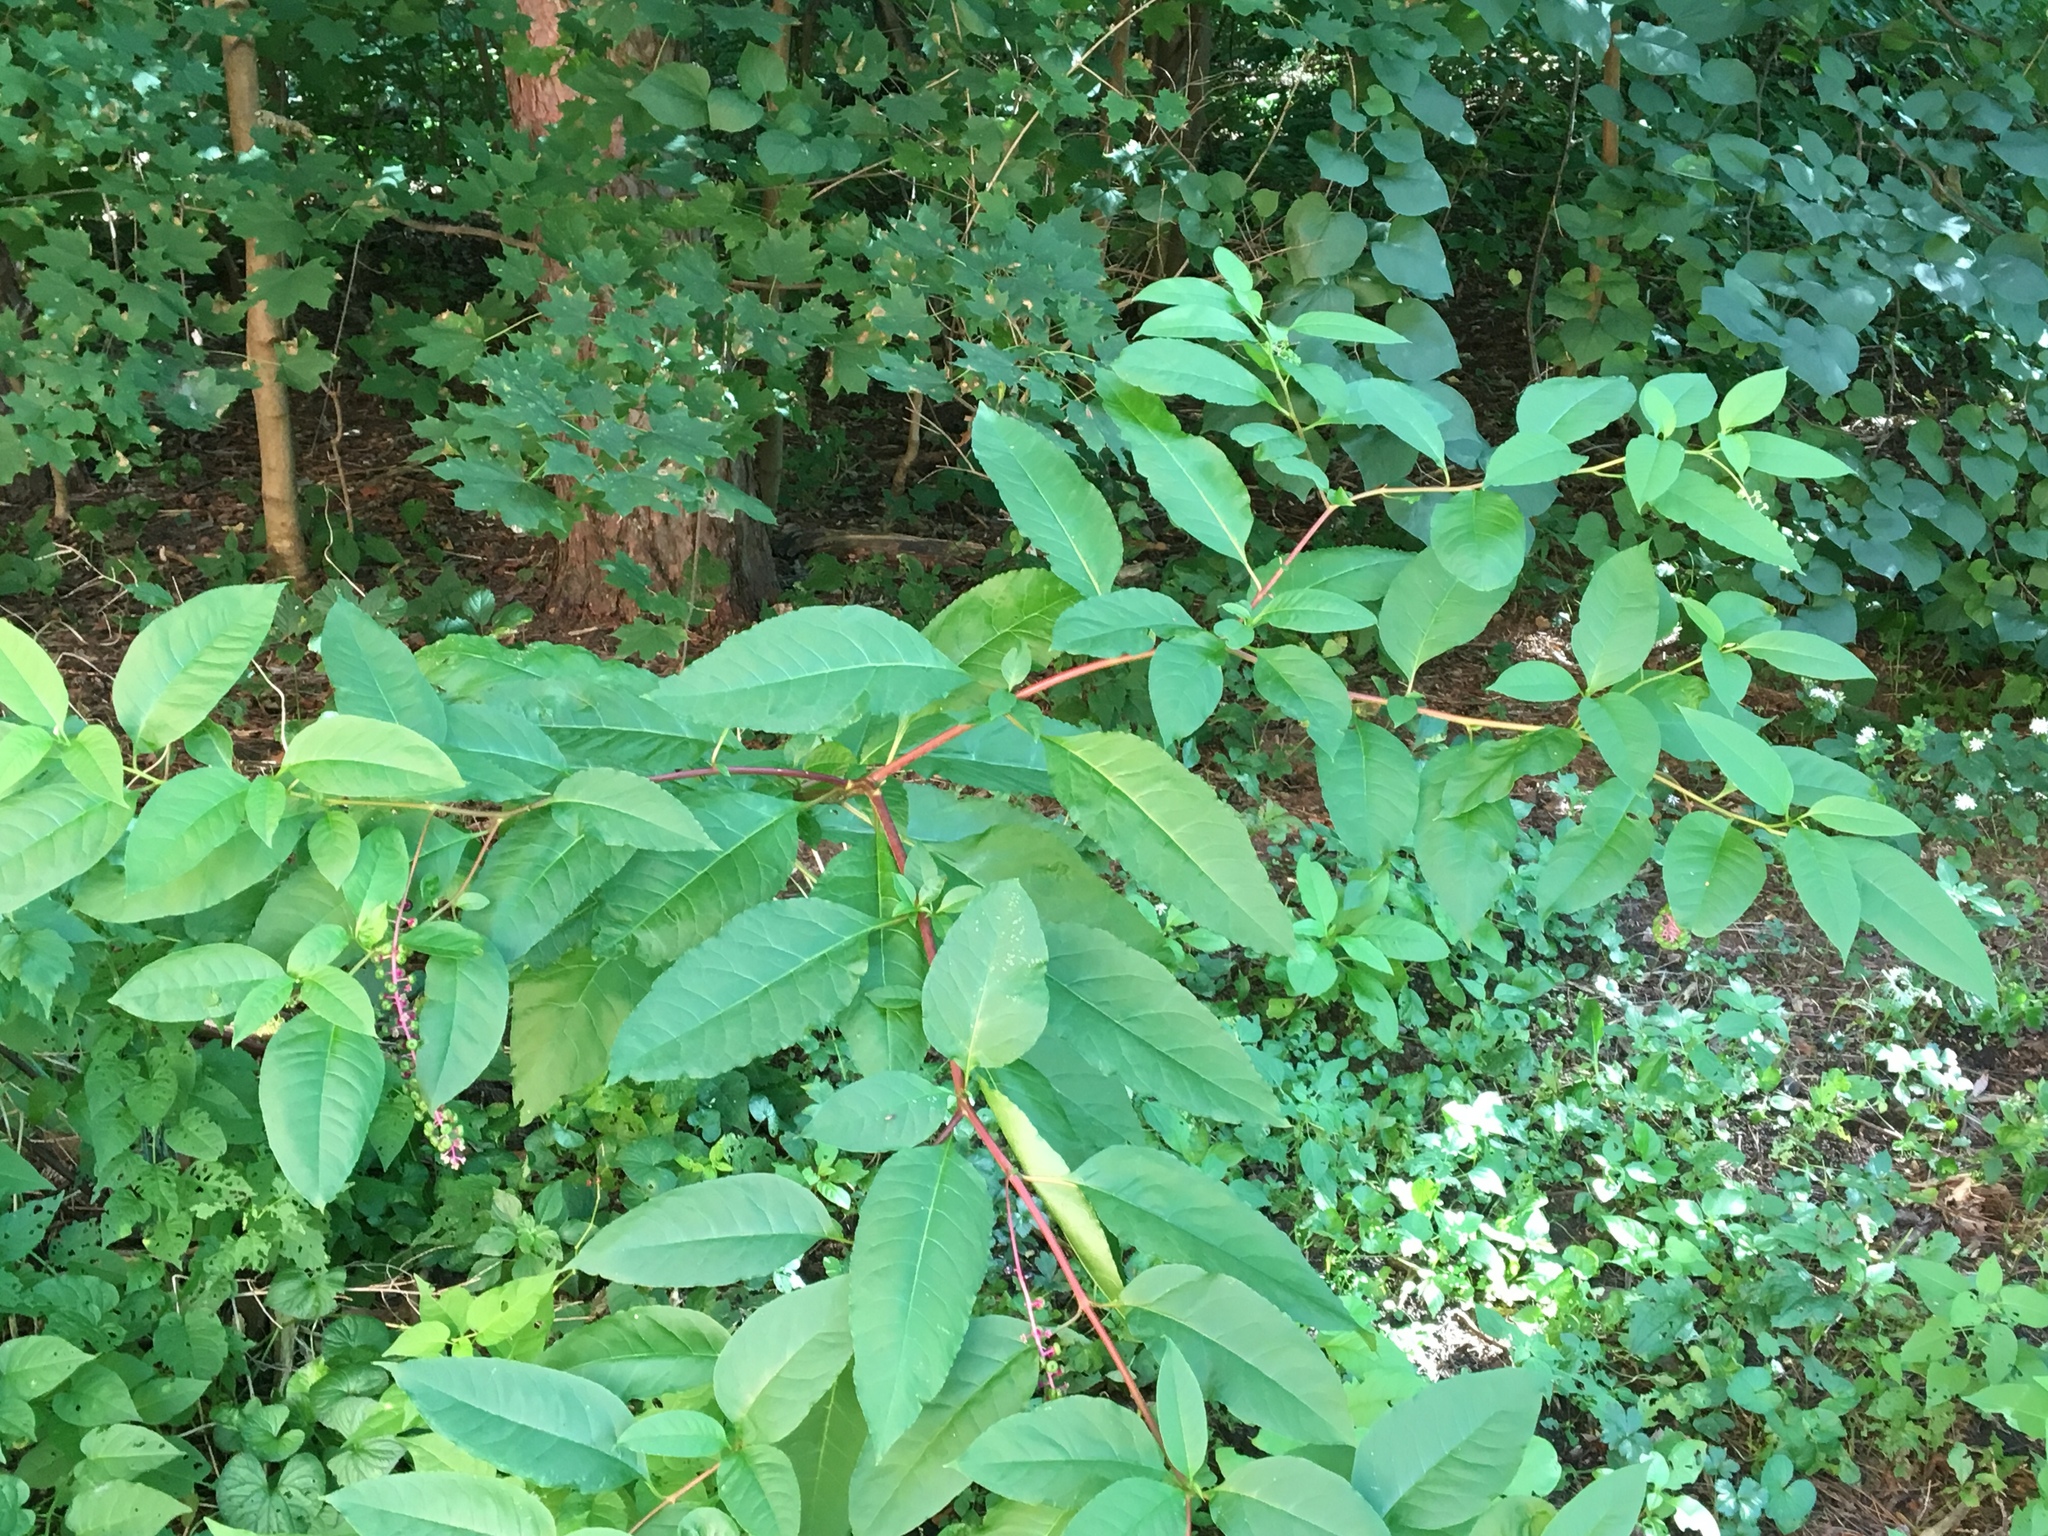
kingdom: Plantae
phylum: Tracheophyta
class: Magnoliopsida
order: Caryophyllales
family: Phytolaccaceae
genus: Phytolacca
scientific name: Phytolacca americana
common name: American pokeweed
